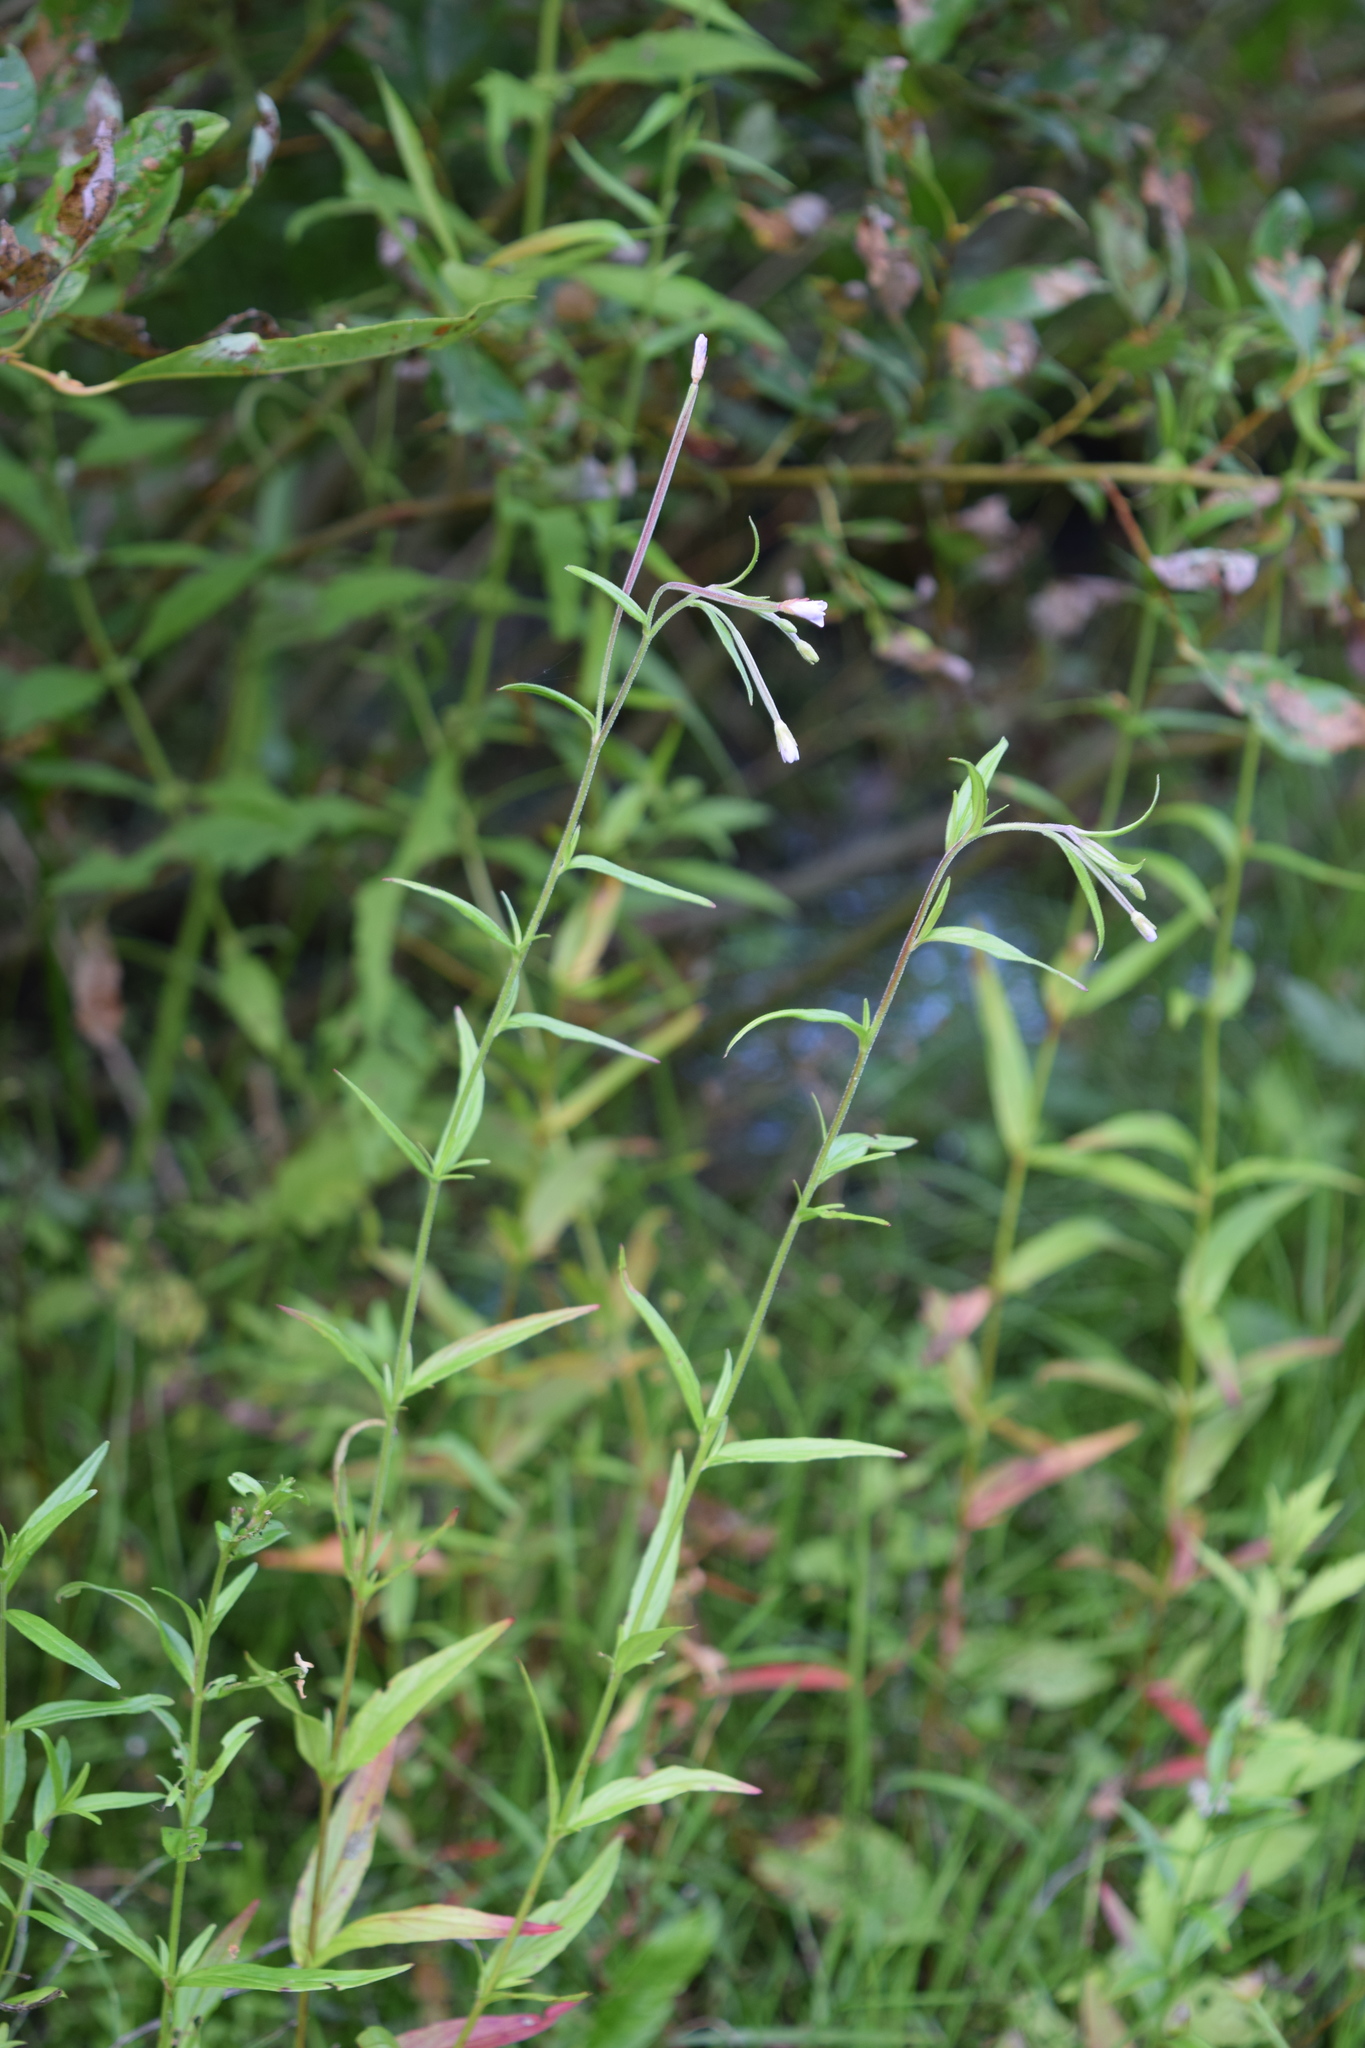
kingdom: Plantae
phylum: Tracheophyta
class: Magnoliopsida
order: Myrtales
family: Onagraceae
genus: Epilobium
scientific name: Epilobium palustre
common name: Marsh willowherb
